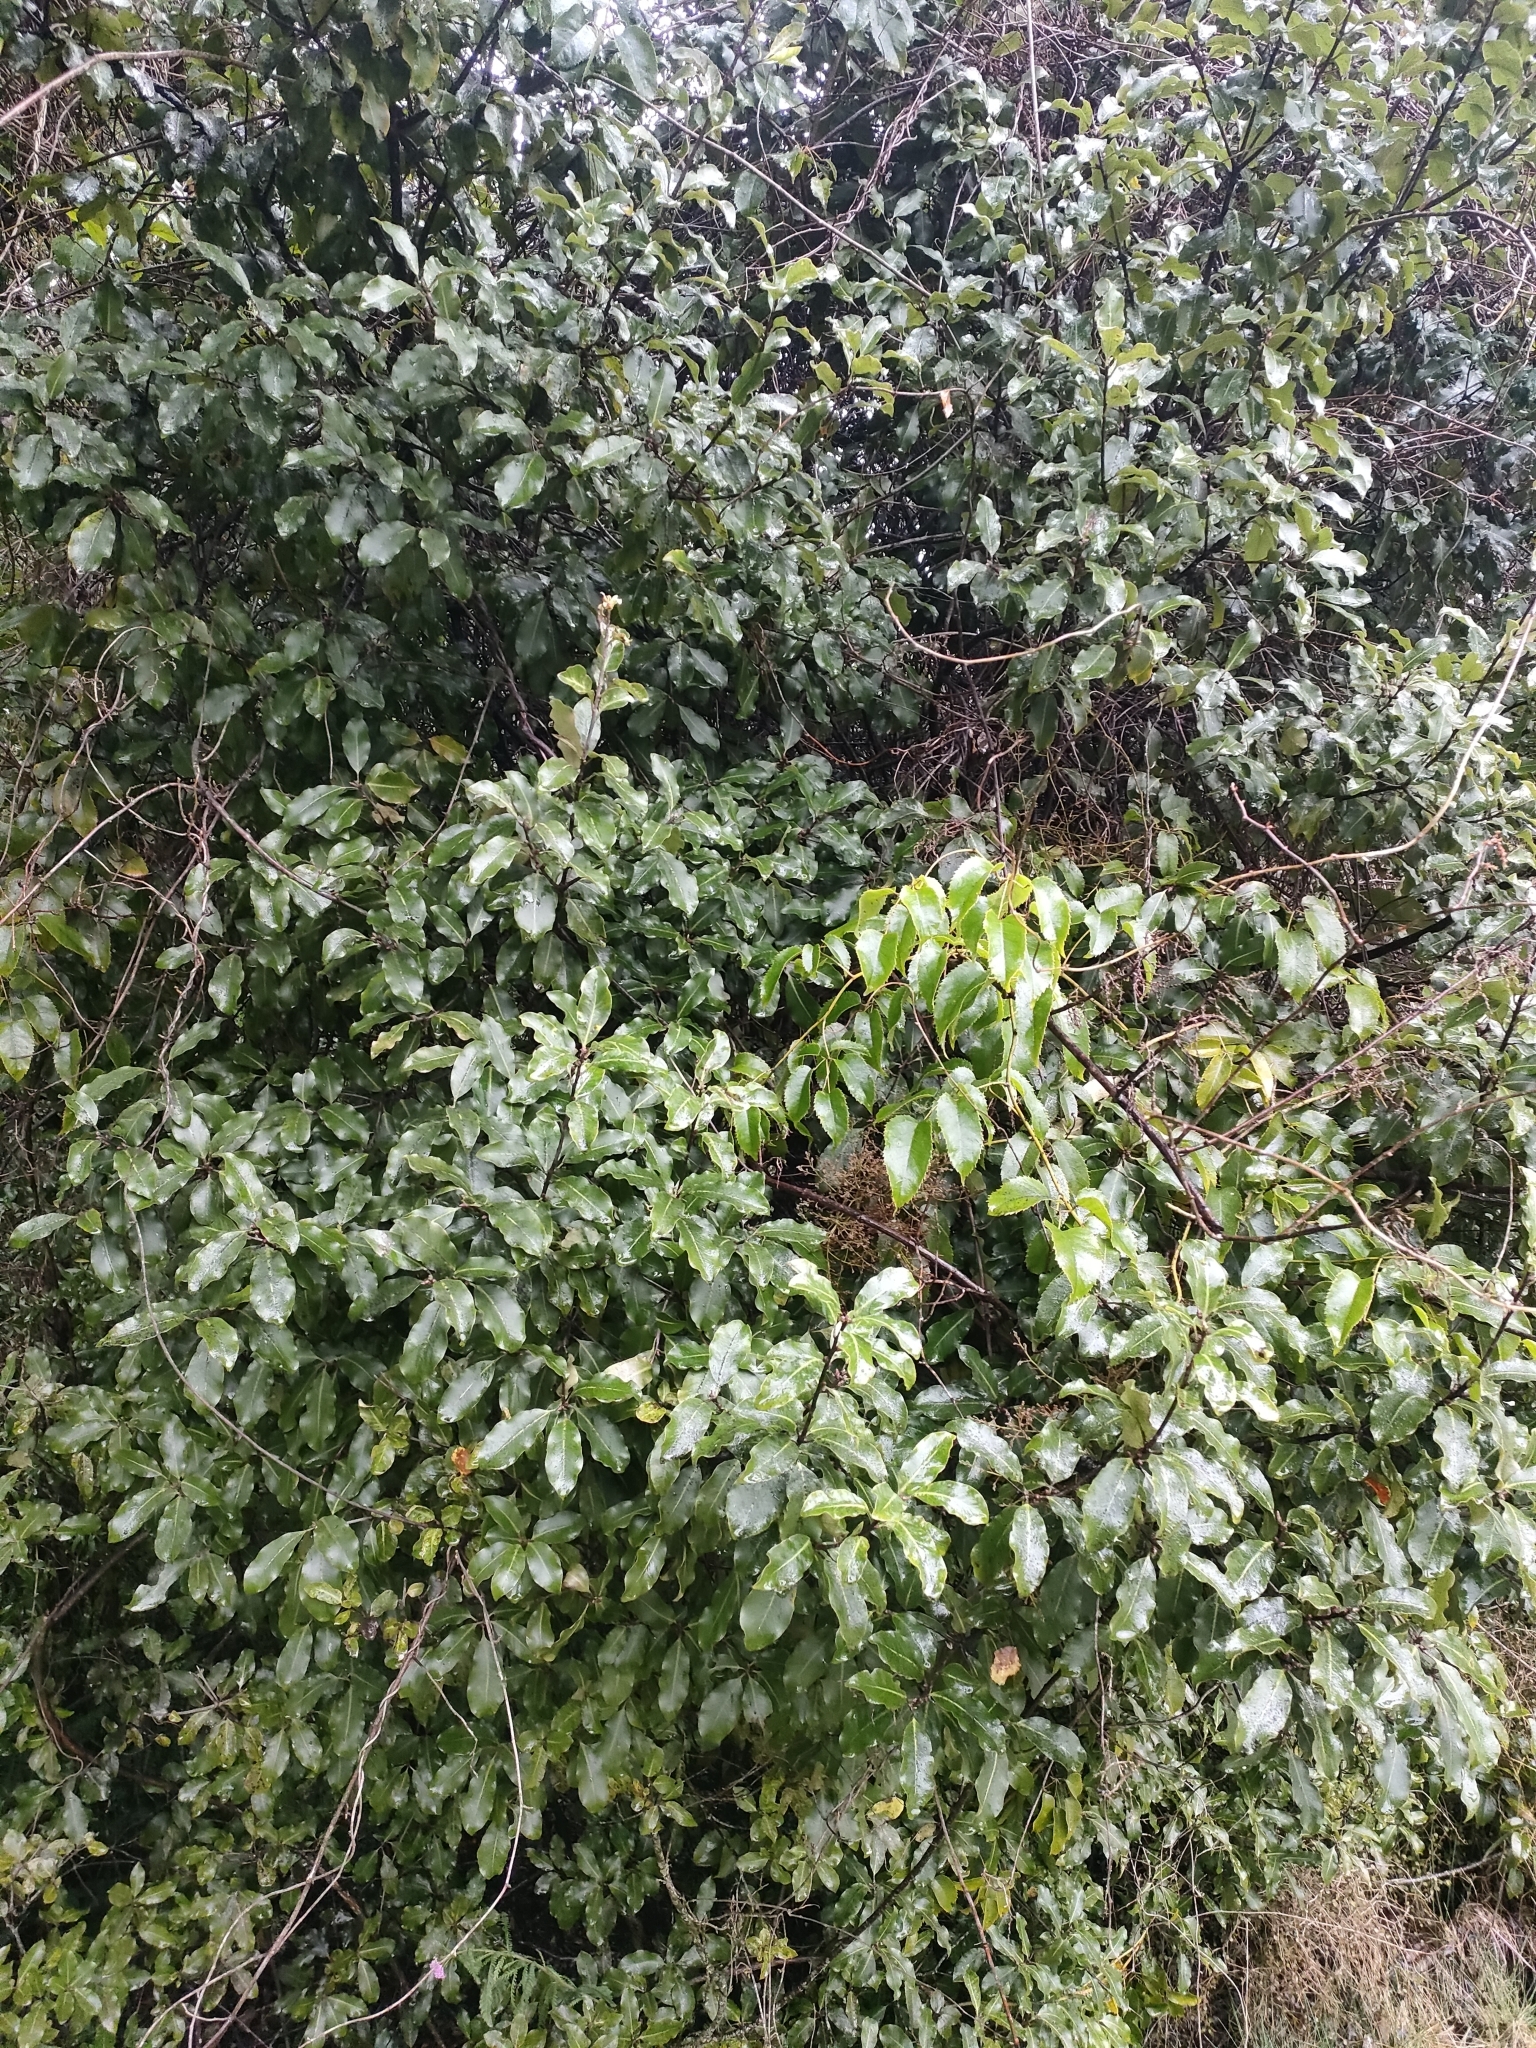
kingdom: Plantae
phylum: Tracheophyta
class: Magnoliopsida
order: Apiales
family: Pittosporaceae
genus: Pittosporum
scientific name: Pittosporum colensoi
